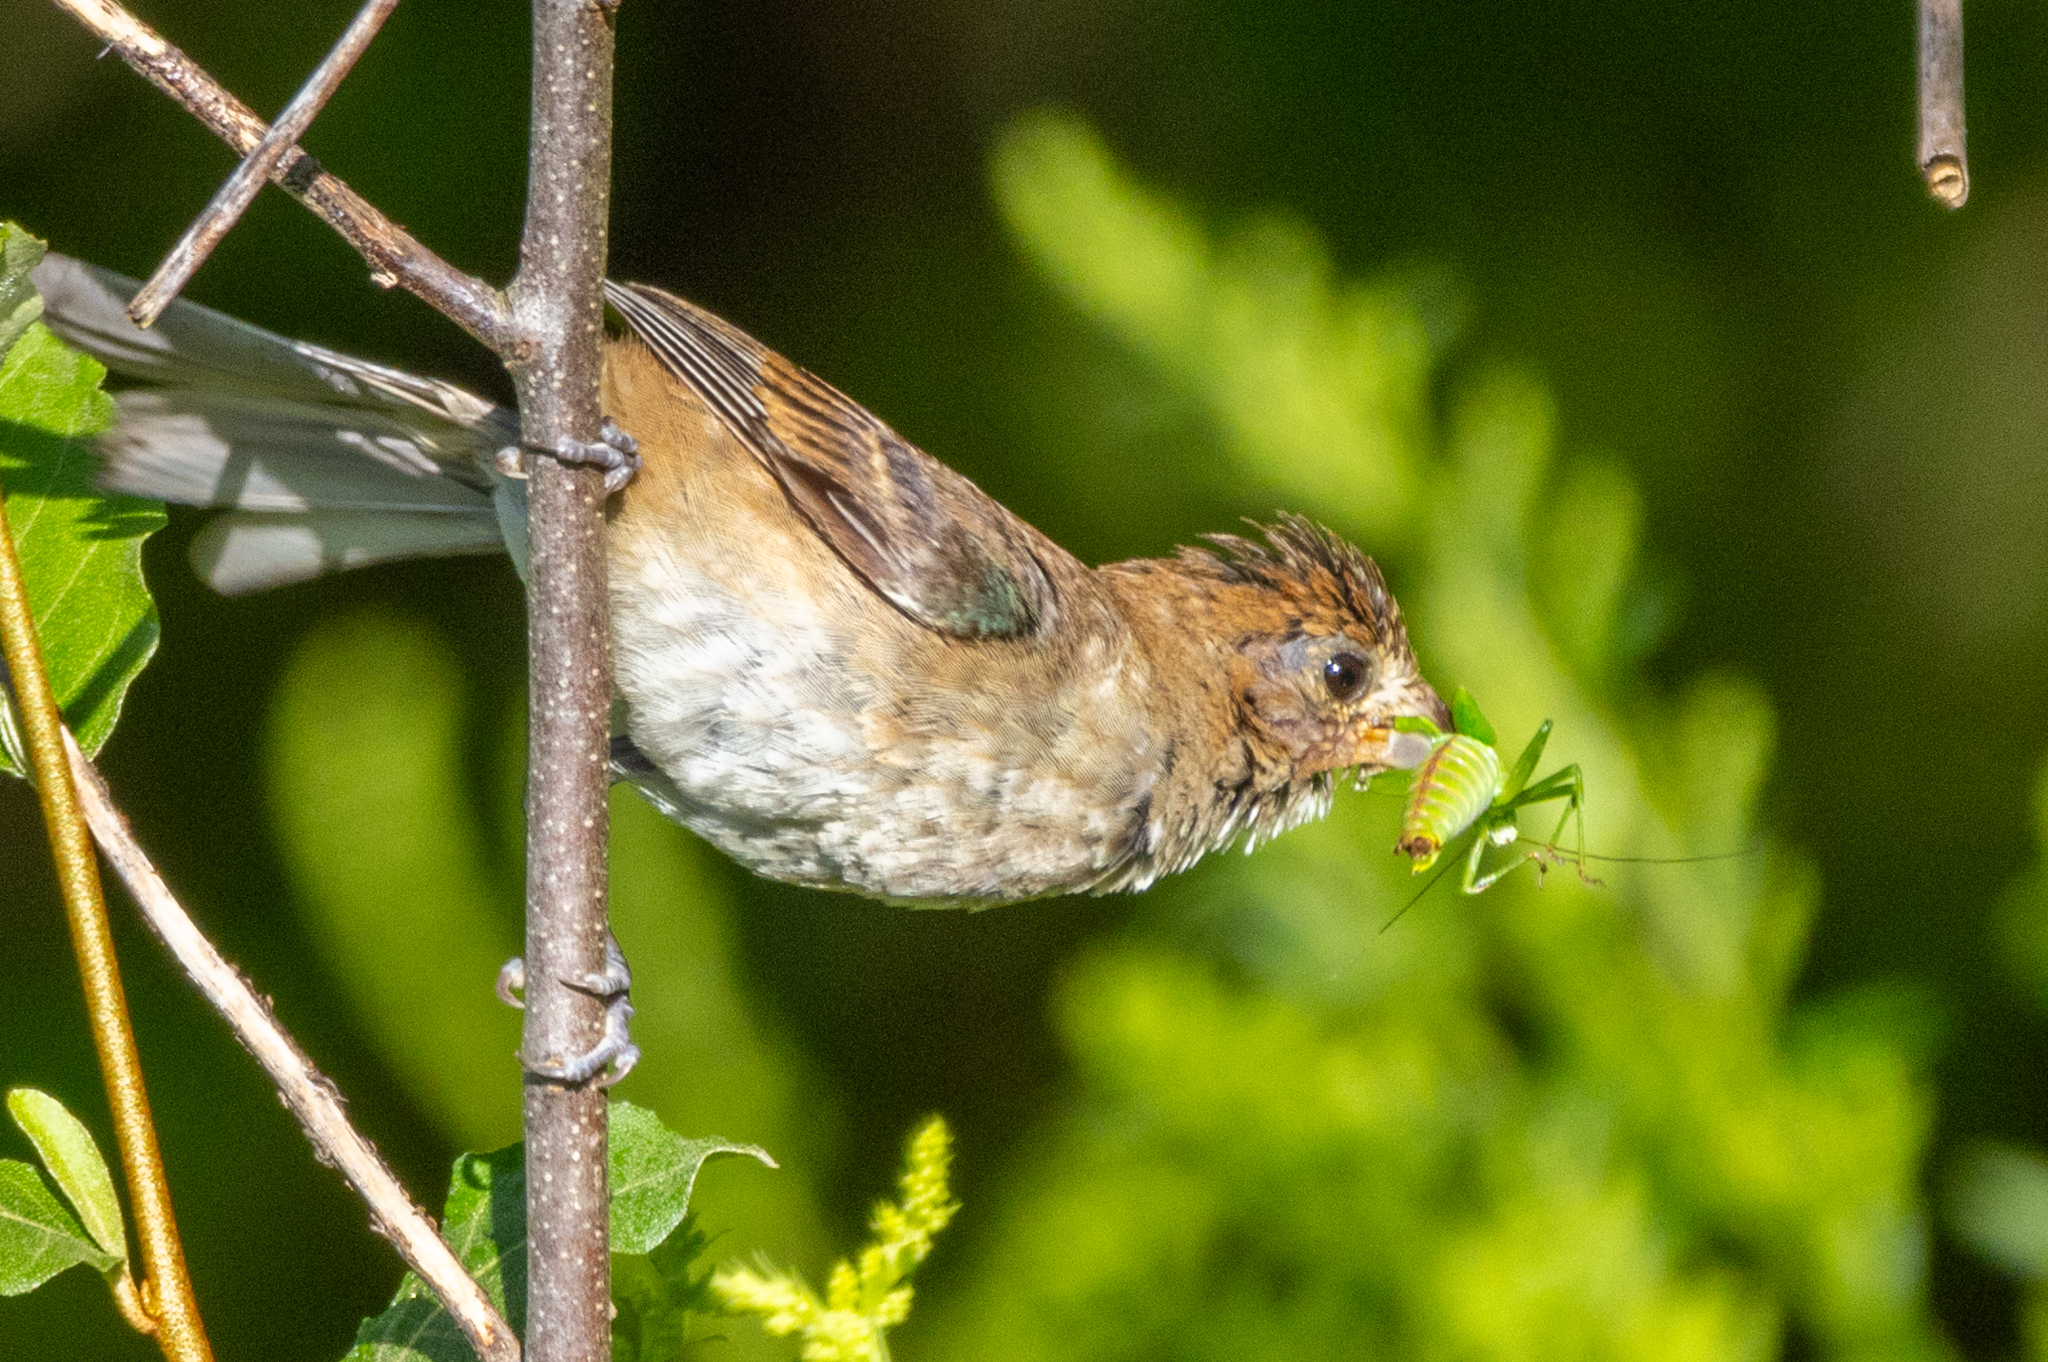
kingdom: Animalia
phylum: Chordata
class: Aves
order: Passeriformes
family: Cardinalidae
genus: Passerina
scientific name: Passerina cyanea
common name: Indigo bunting
